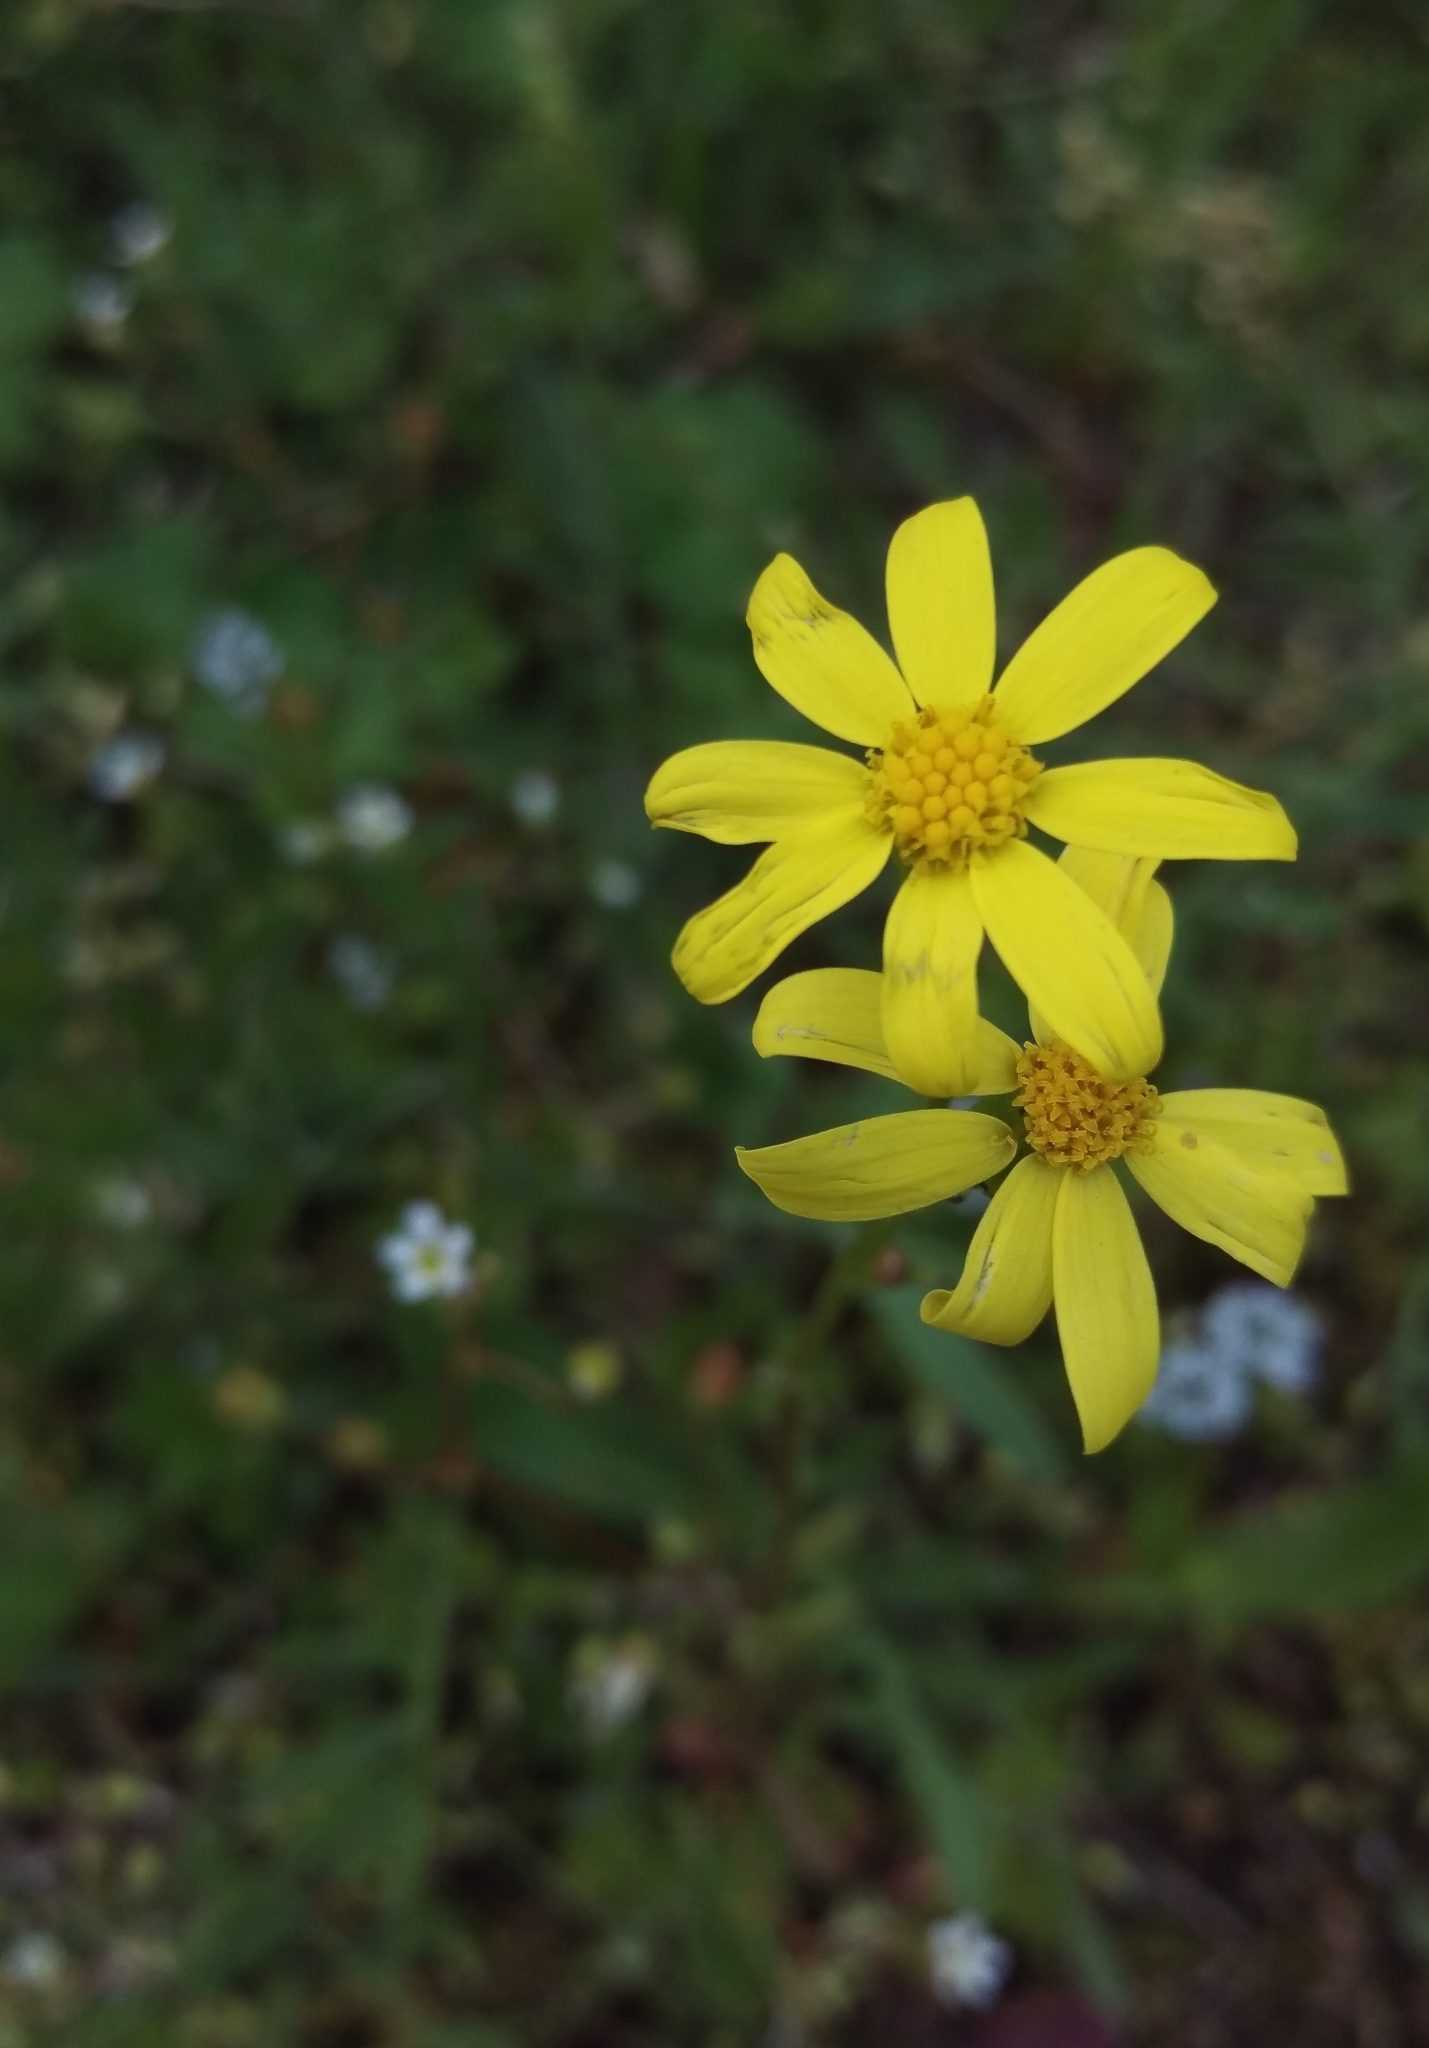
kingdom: Plantae
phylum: Tracheophyta
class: Magnoliopsida
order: Asterales
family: Asteraceae
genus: Senecio
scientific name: Senecio vernalis
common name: Eastern groundsel
